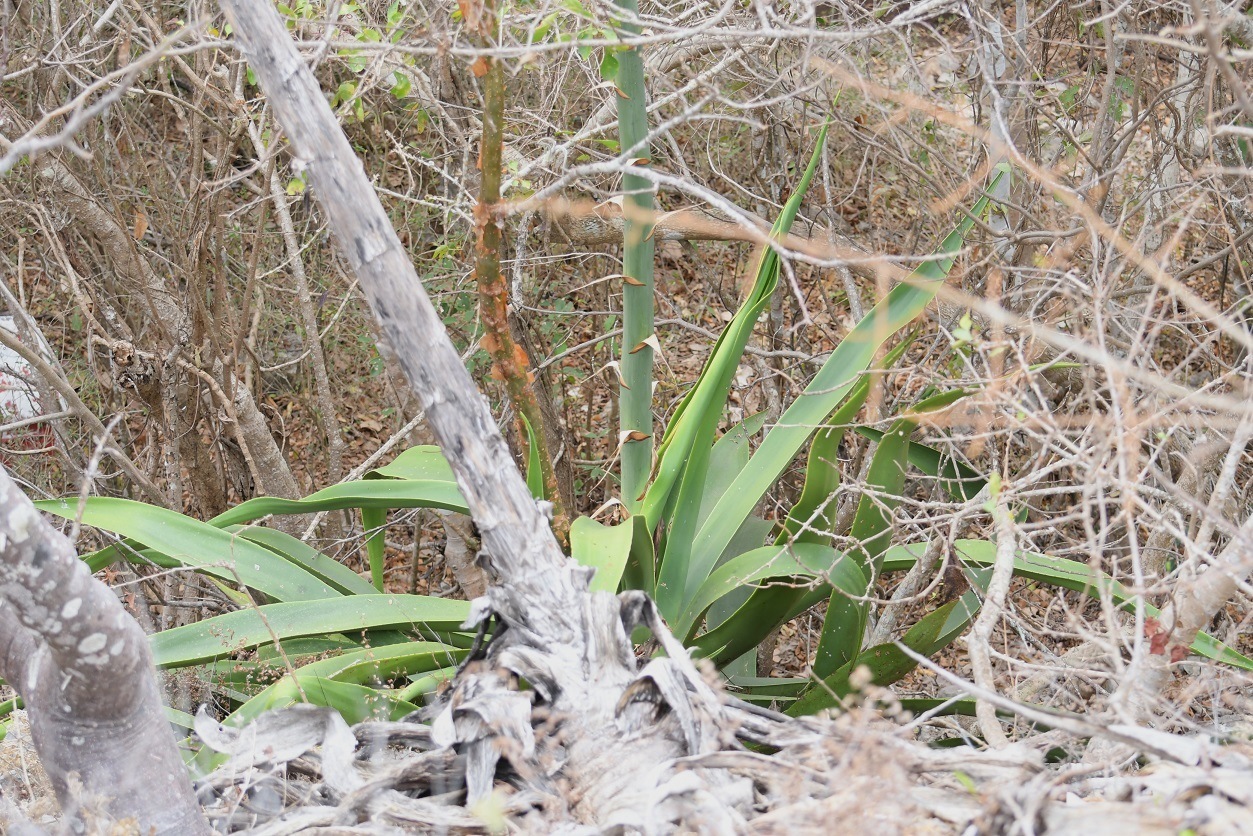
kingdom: Plantae
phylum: Tracheophyta
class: Liliopsida
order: Asparagales
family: Asparagaceae
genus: Agave
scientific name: Agave kewensis
